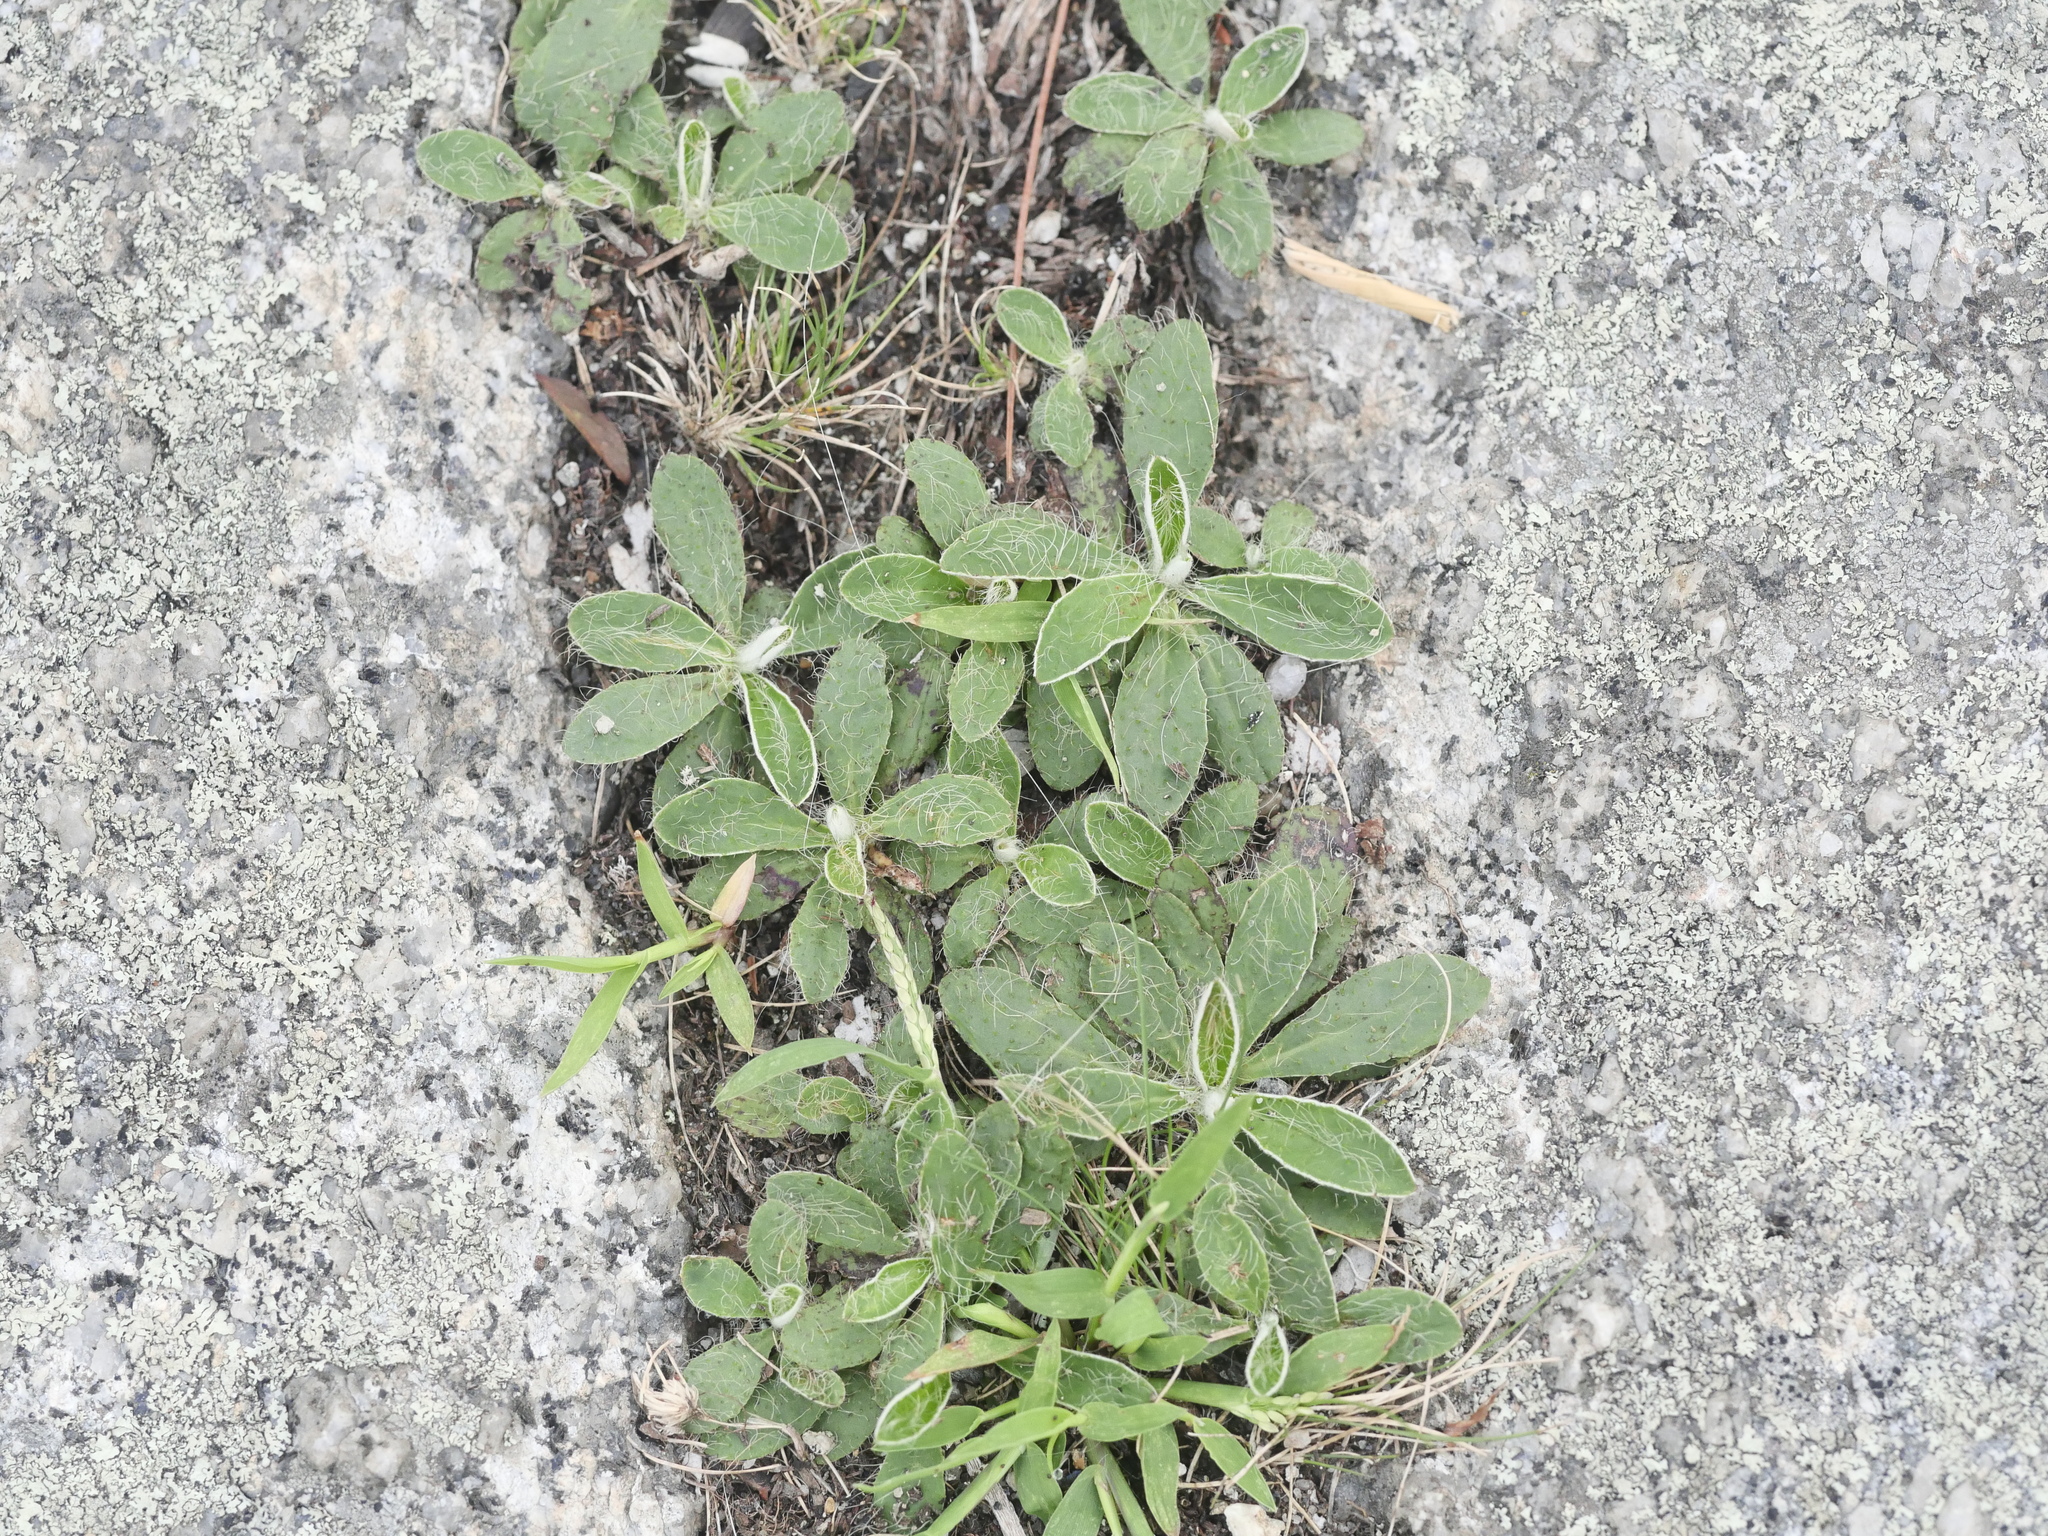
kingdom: Plantae
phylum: Tracheophyta
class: Magnoliopsida
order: Asterales
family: Asteraceae
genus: Pilosella
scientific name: Pilosella officinarum
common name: Mouse-ear hawkweed
